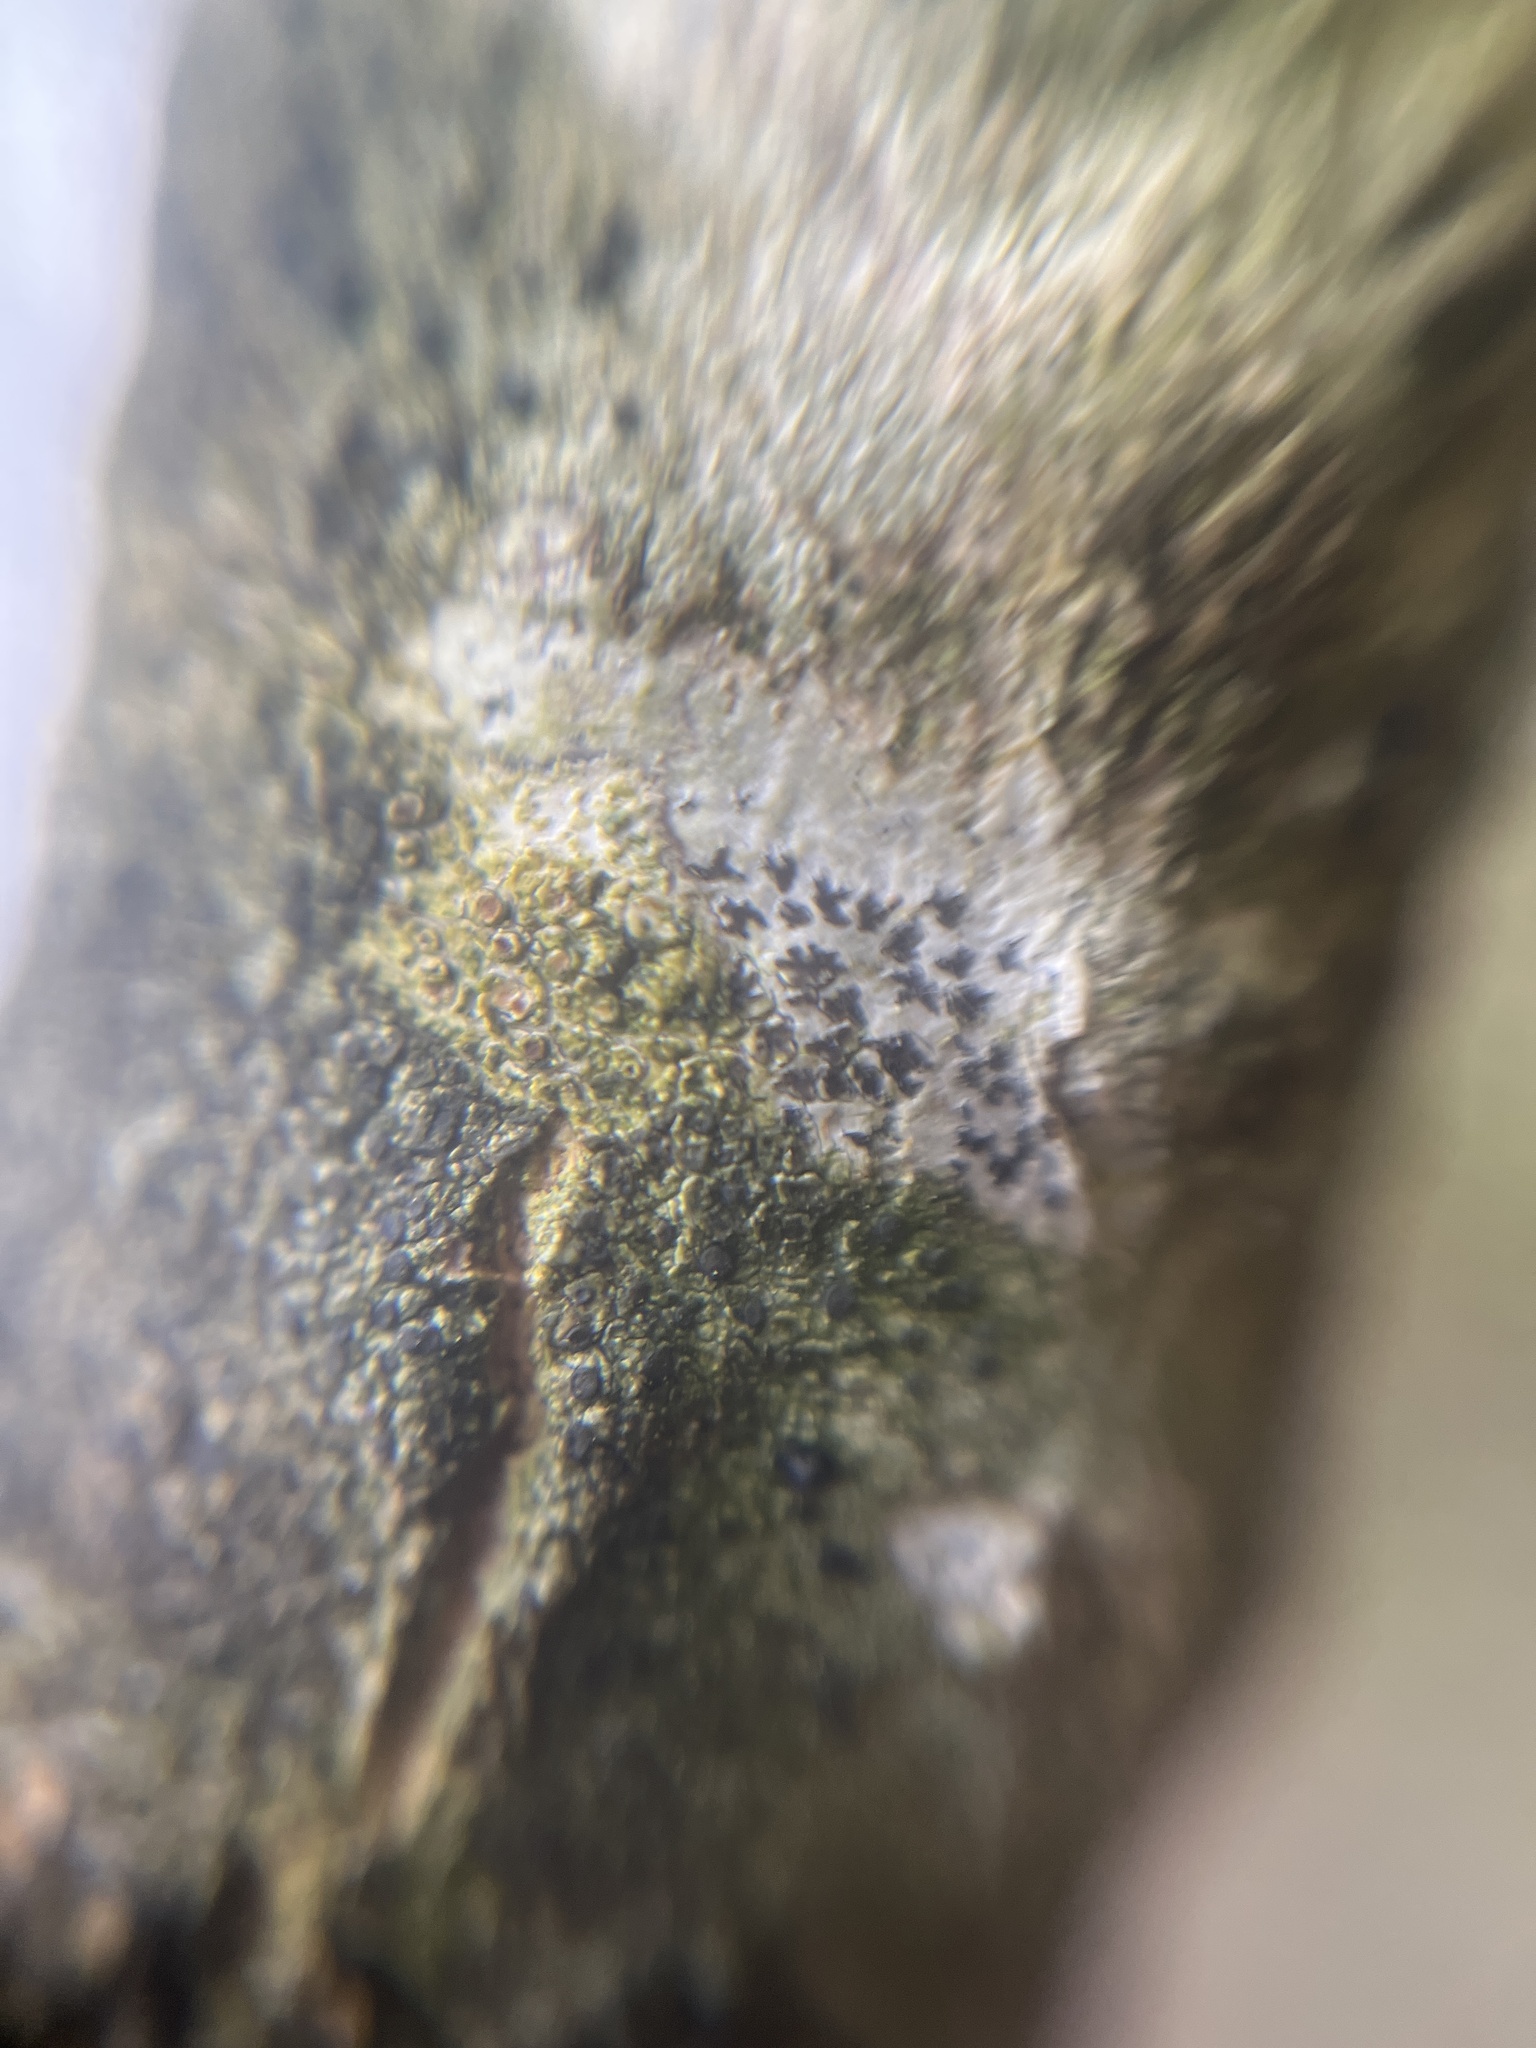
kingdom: Fungi
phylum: Ascomycota
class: Arthoniomycetes
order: Arthoniales
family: Arthoniaceae
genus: Arthonia
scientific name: Arthonia radiata
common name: Asterisk lichen
